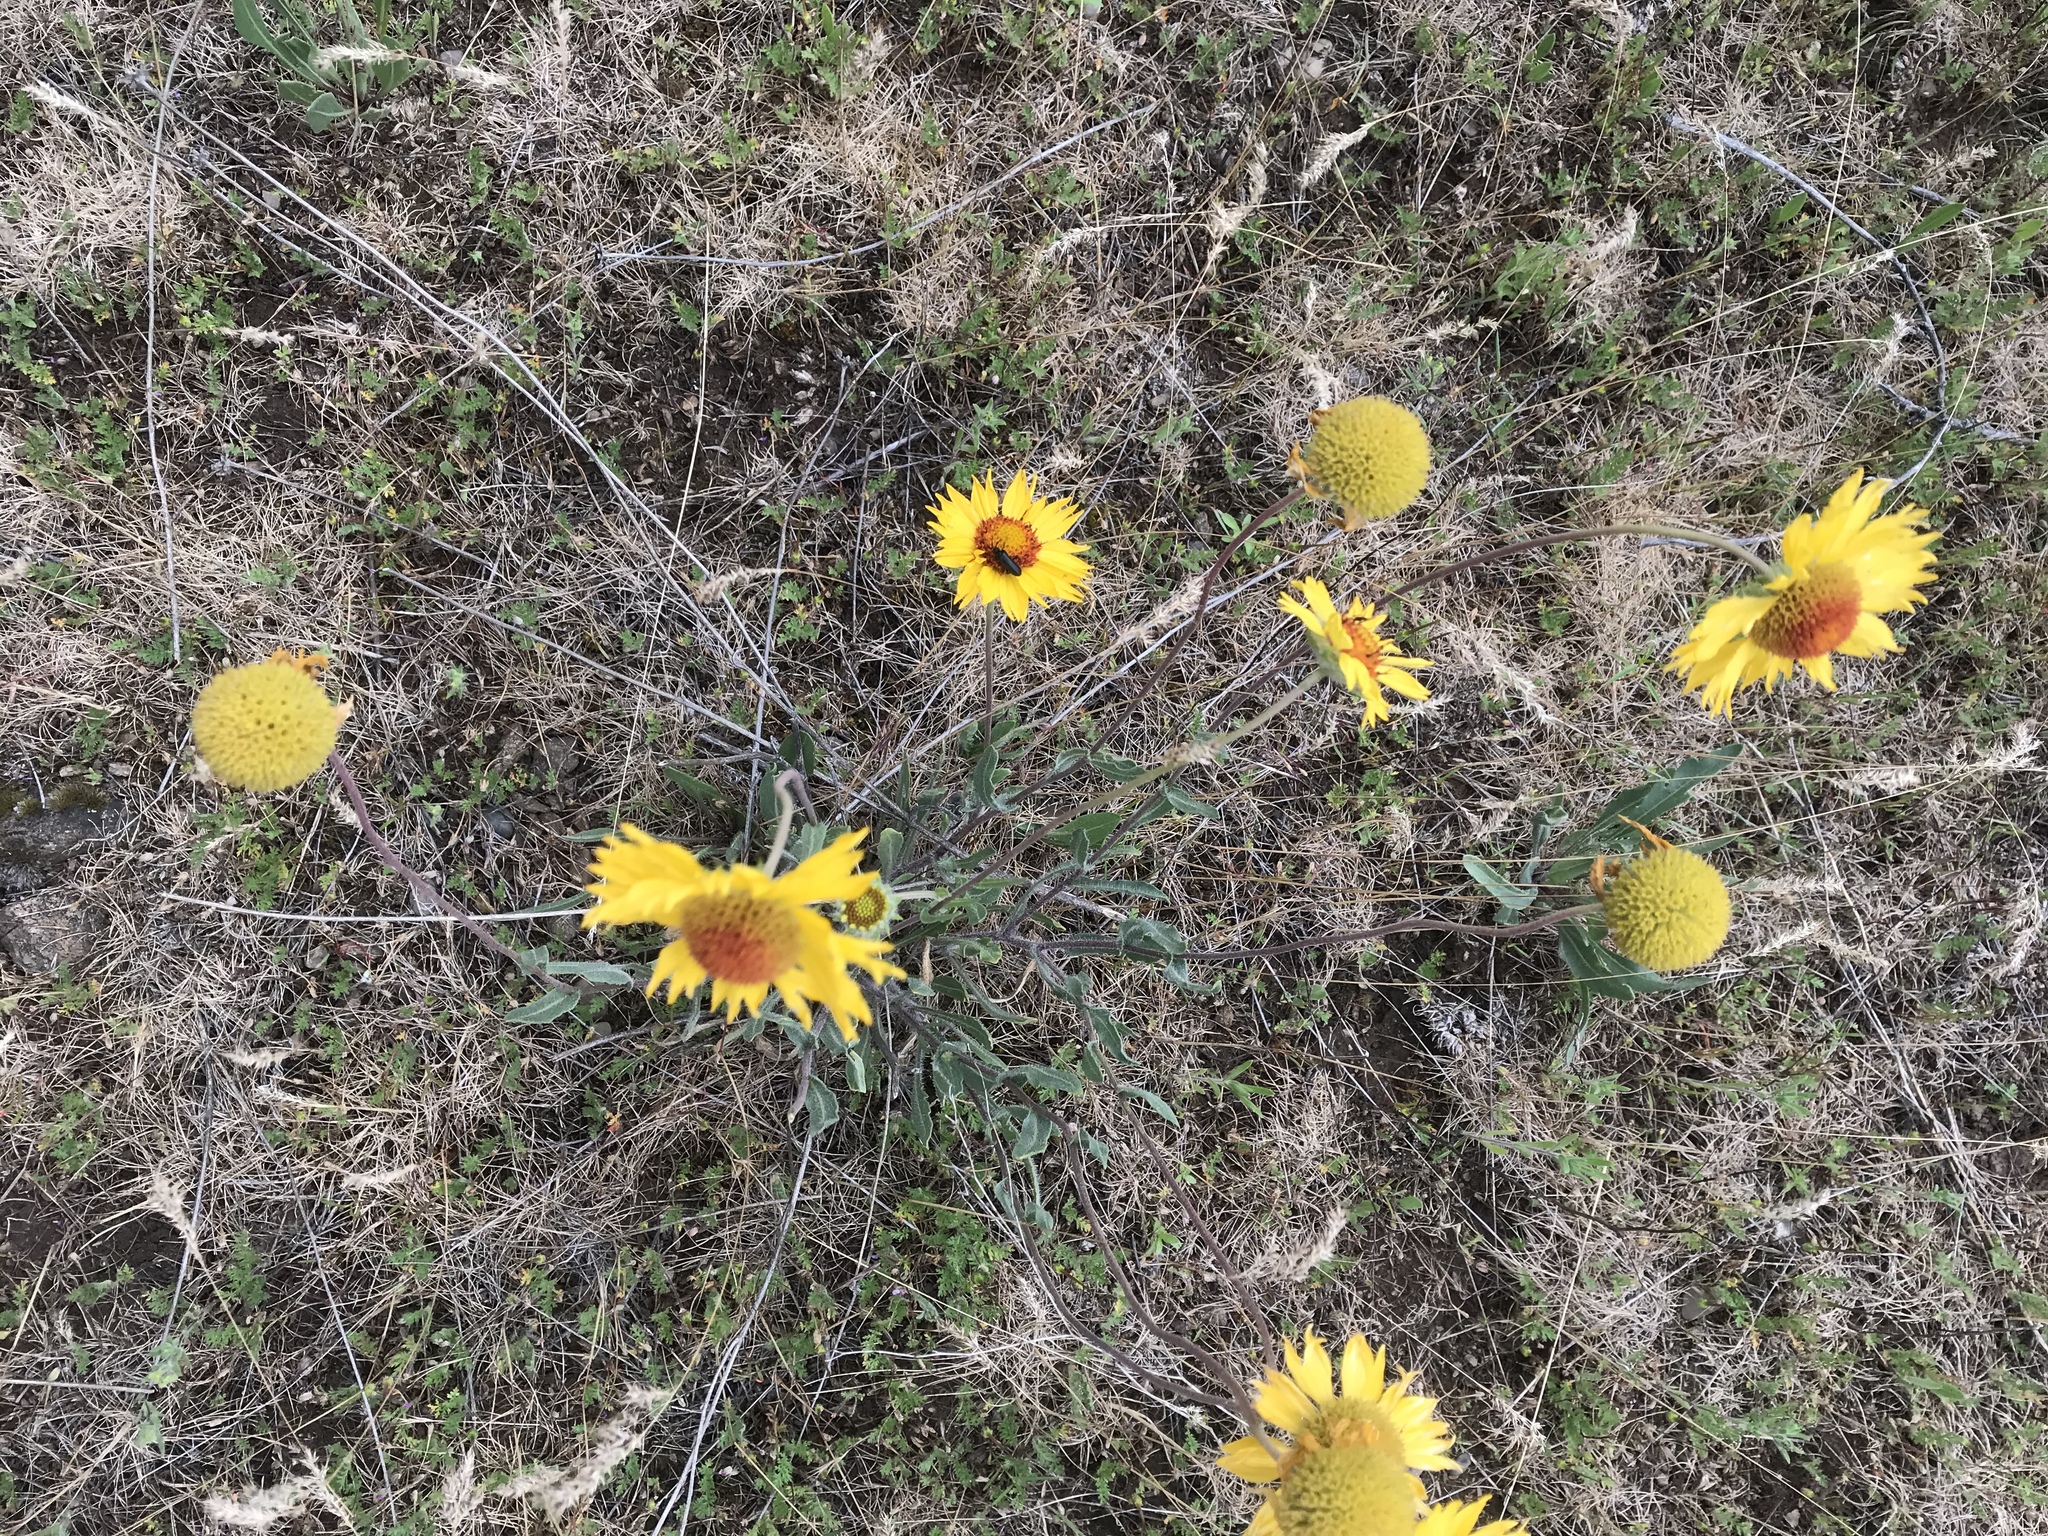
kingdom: Plantae
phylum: Tracheophyta
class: Magnoliopsida
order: Asterales
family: Asteraceae
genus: Gaillardia
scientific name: Gaillardia aristata
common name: Blanket-flower
